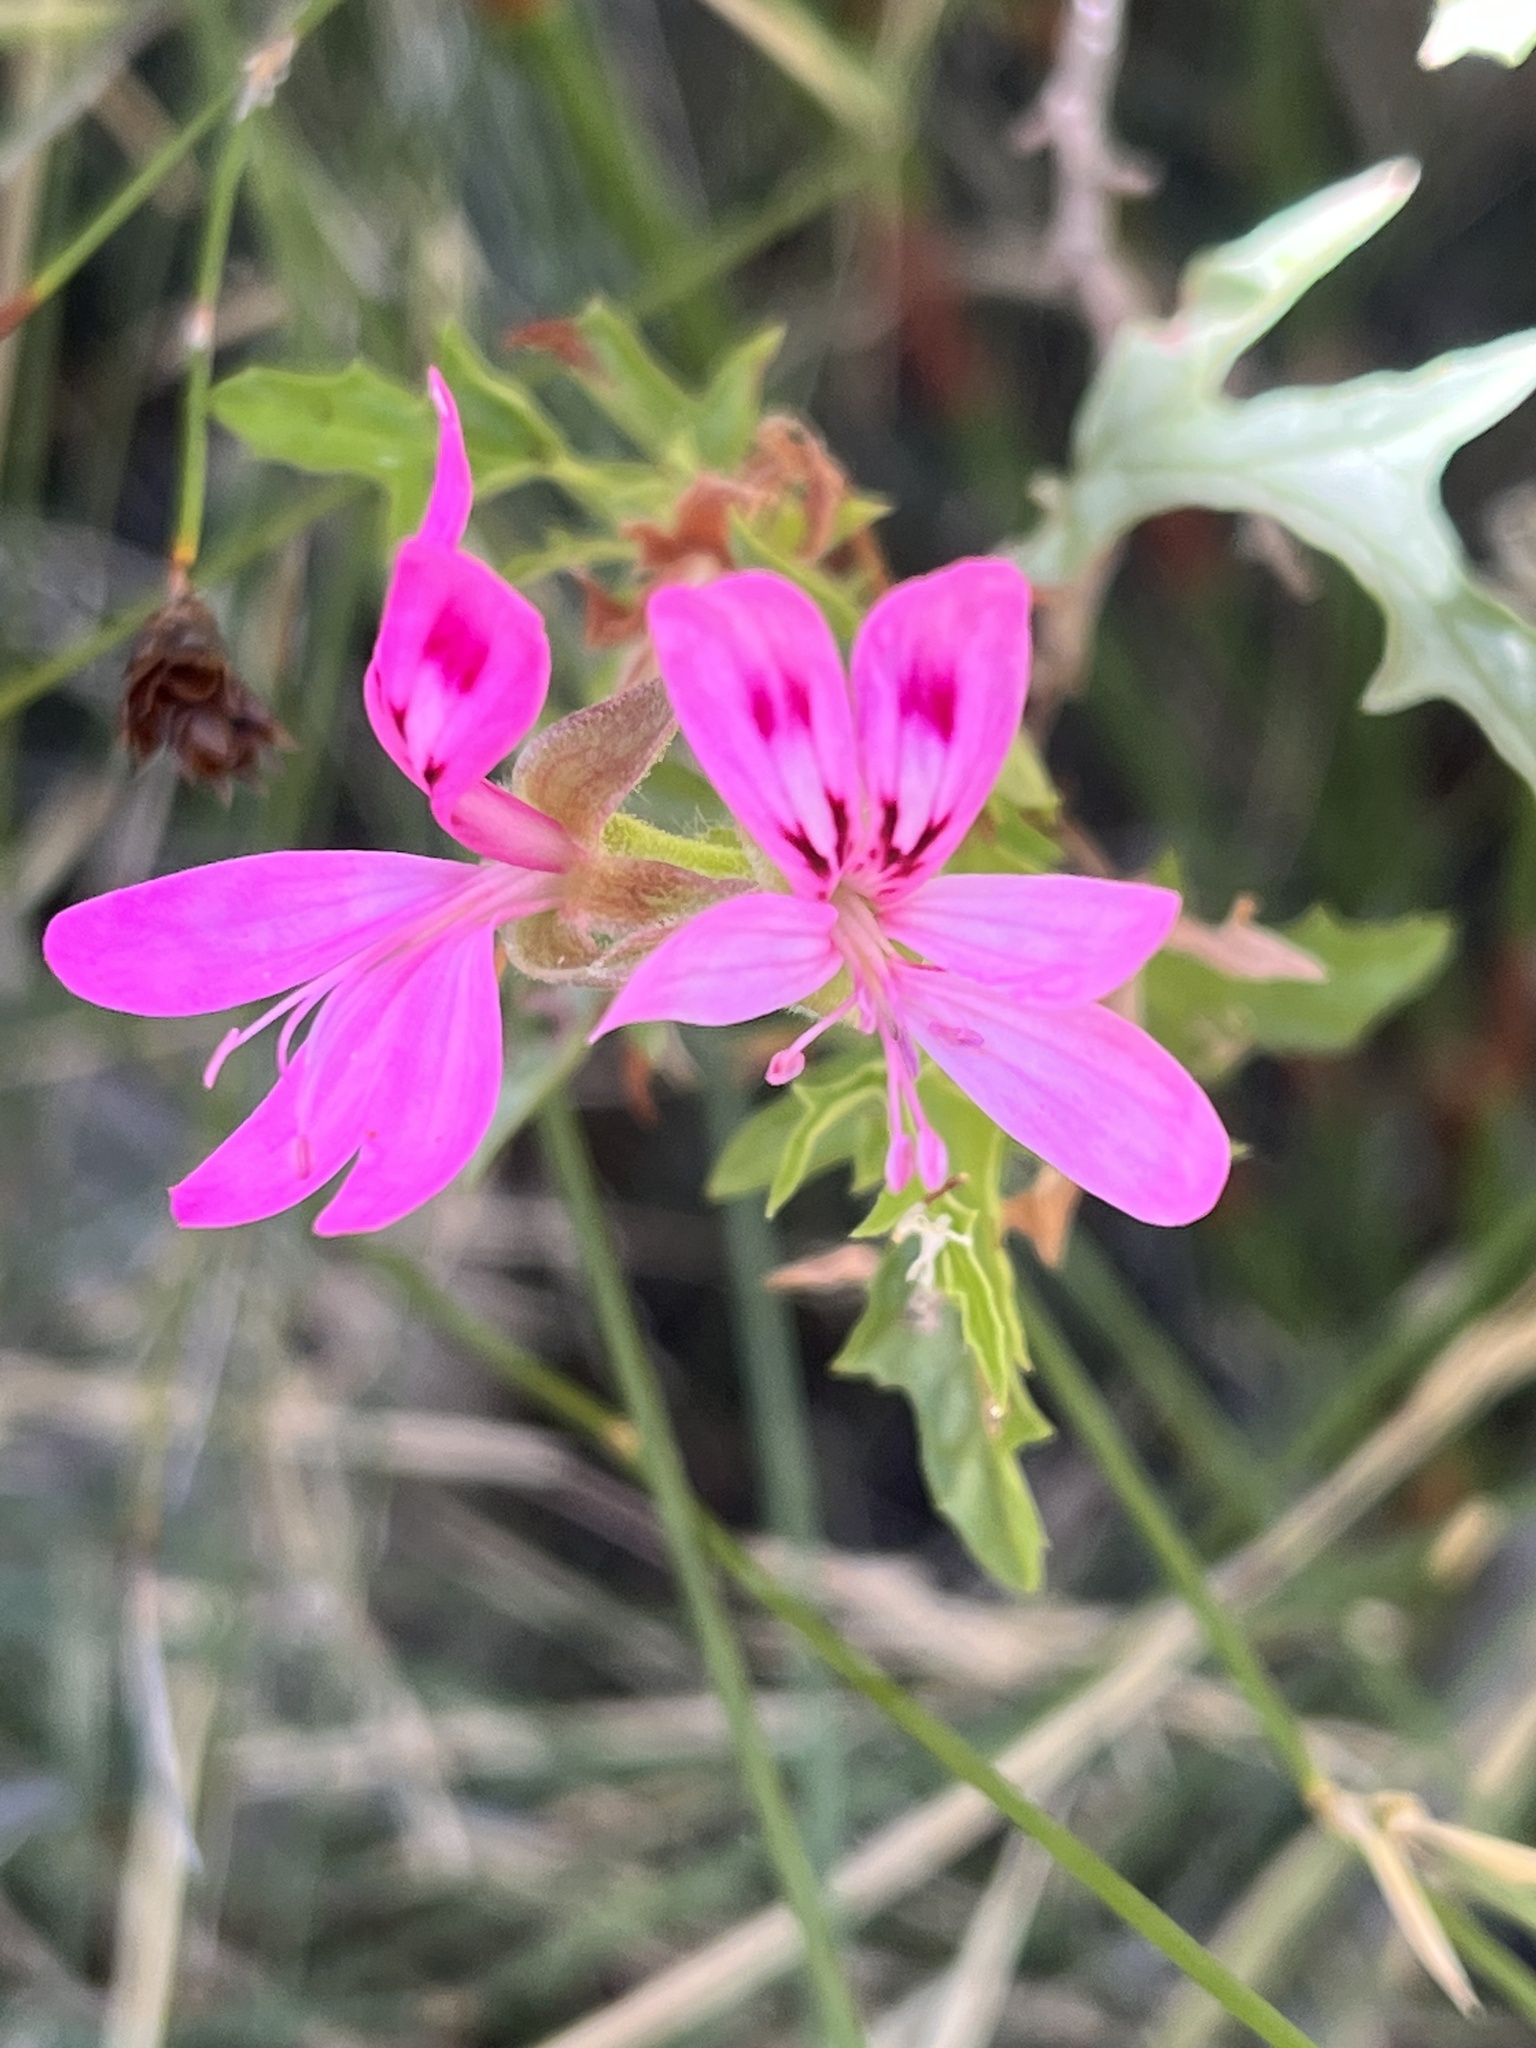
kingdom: Plantae
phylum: Tracheophyta
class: Magnoliopsida
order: Geraniales
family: Geraniaceae
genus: Pelargonium
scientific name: Pelargonium glutinosum
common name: Pheasant-foot geranium
